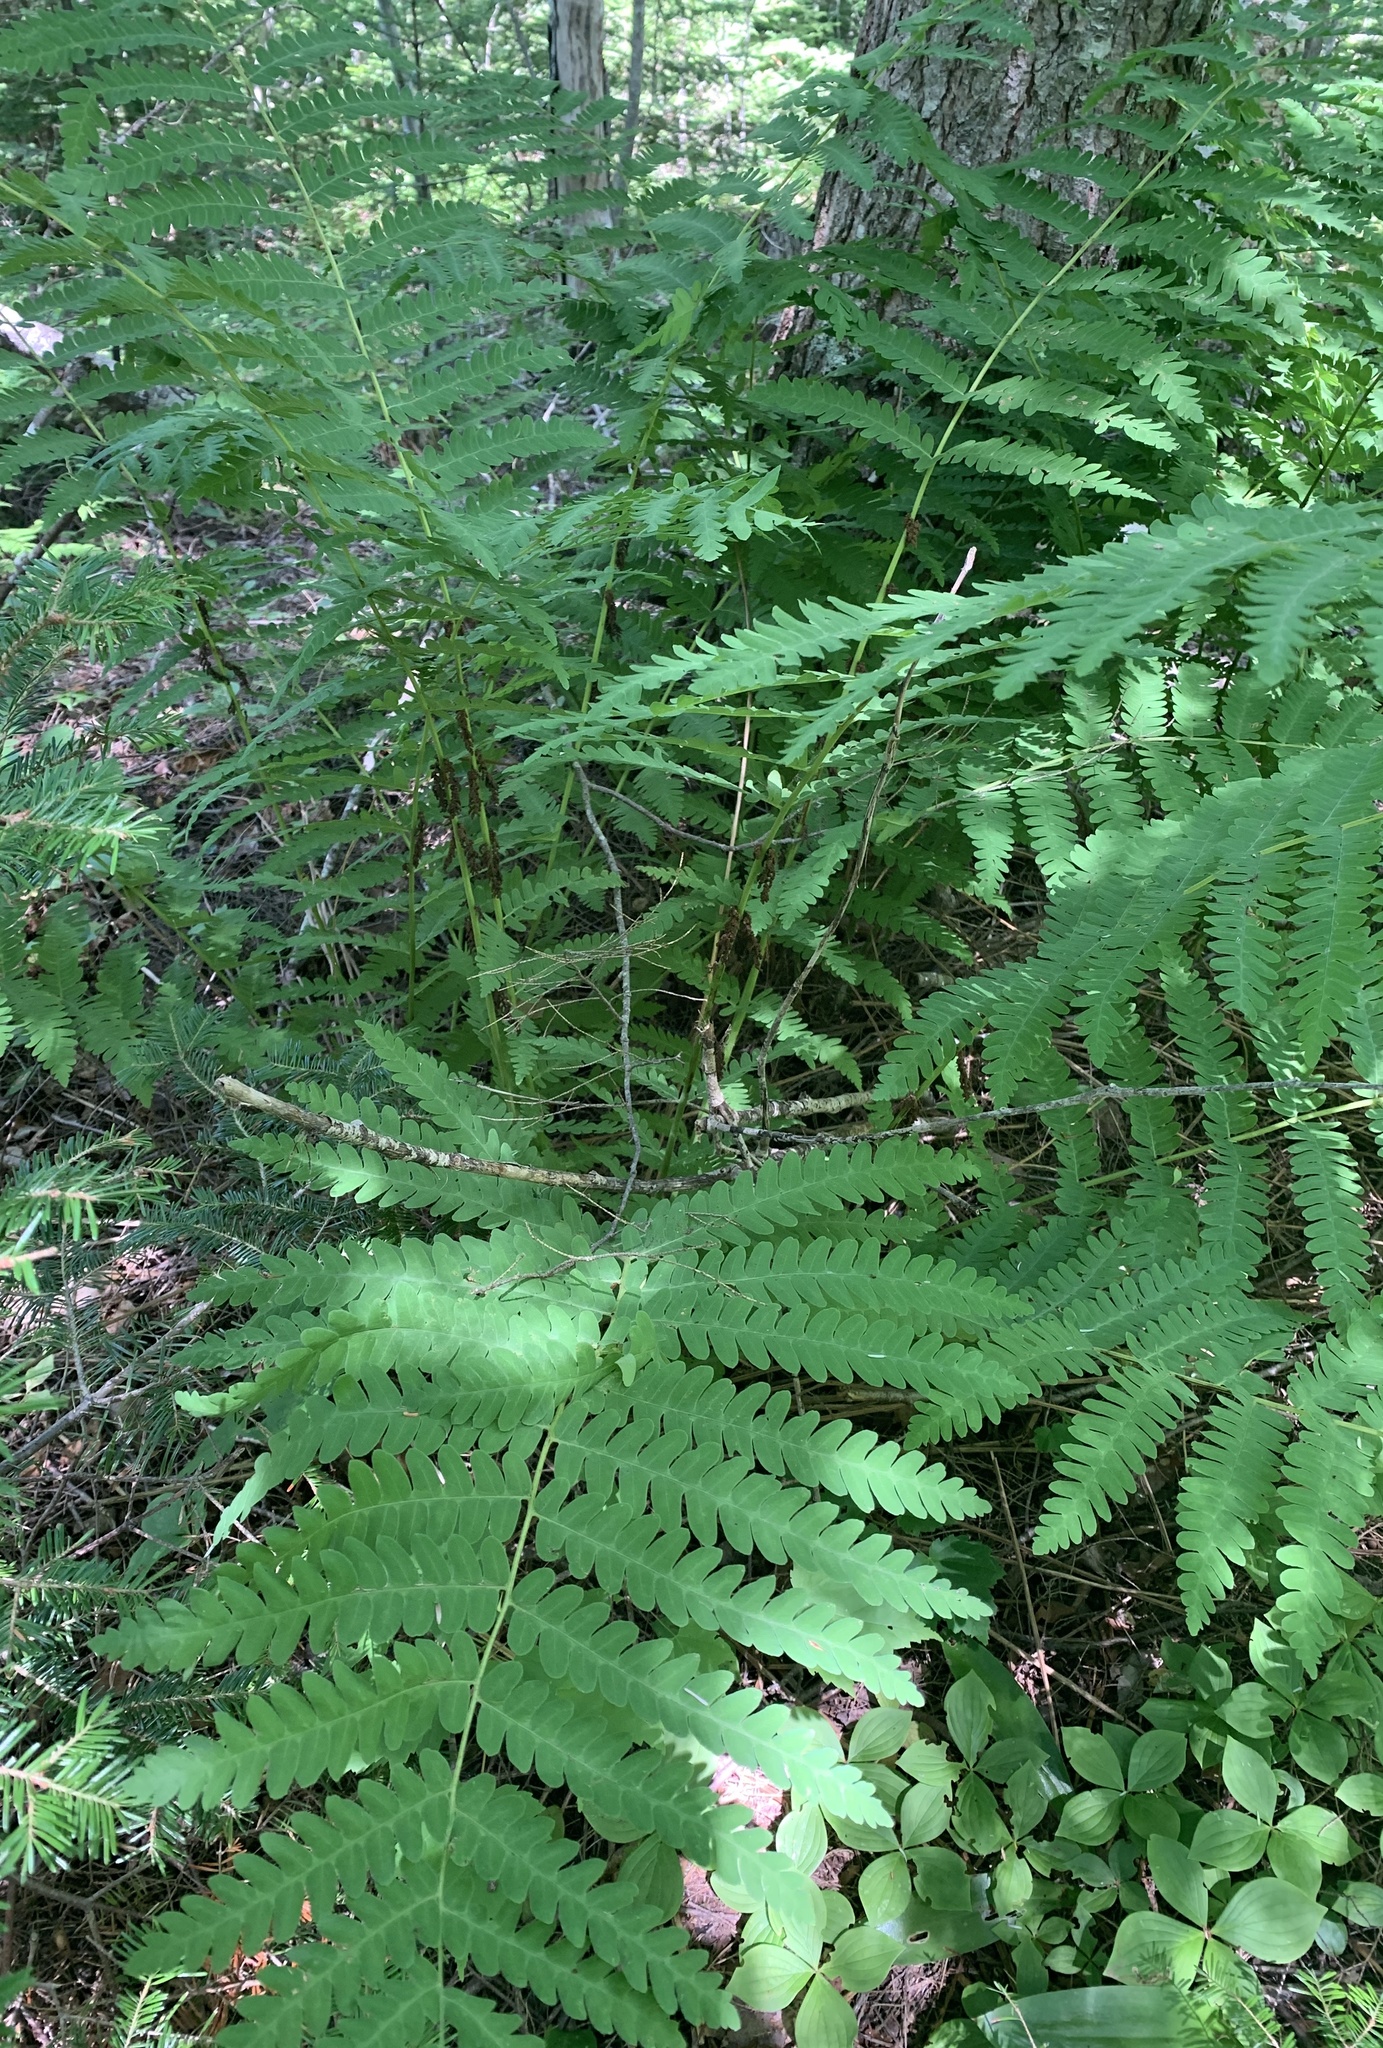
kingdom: Plantae
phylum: Tracheophyta
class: Polypodiopsida
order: Osmundales
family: Osmundaceae
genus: Claytosmunda
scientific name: Claytosmunda claytoniana
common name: Clayton's fern
